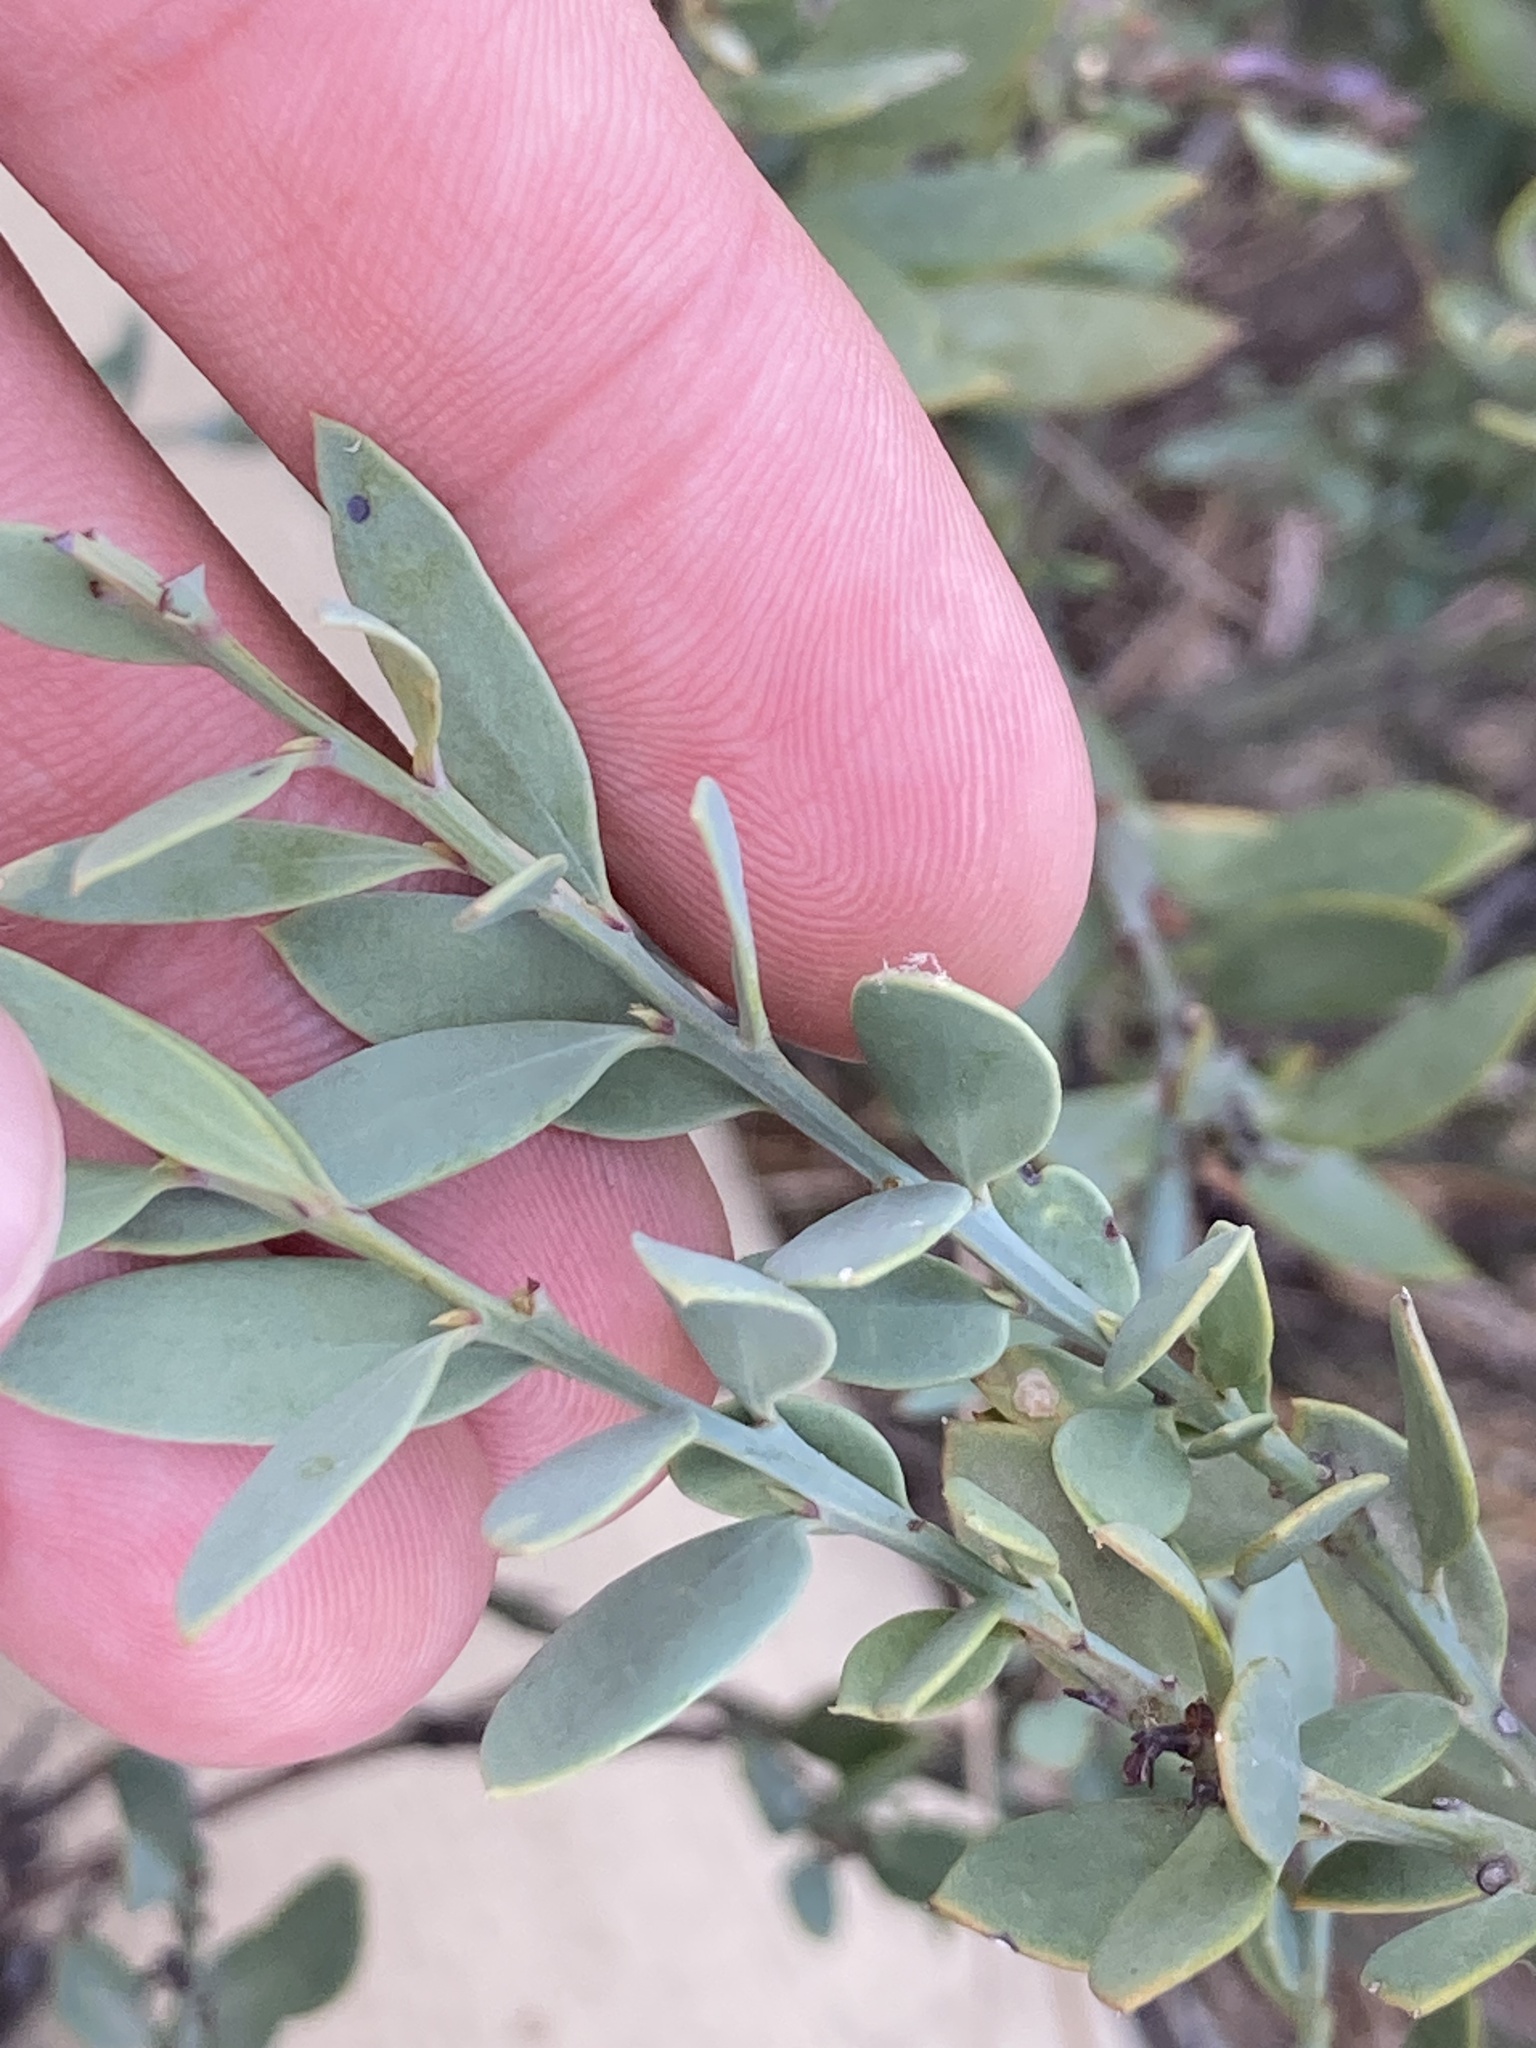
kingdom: Plantae
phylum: Tracheophyta
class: Magnoliopsida
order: Santalales
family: Santalaceae
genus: Osyris
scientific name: Osyris lanceolata
